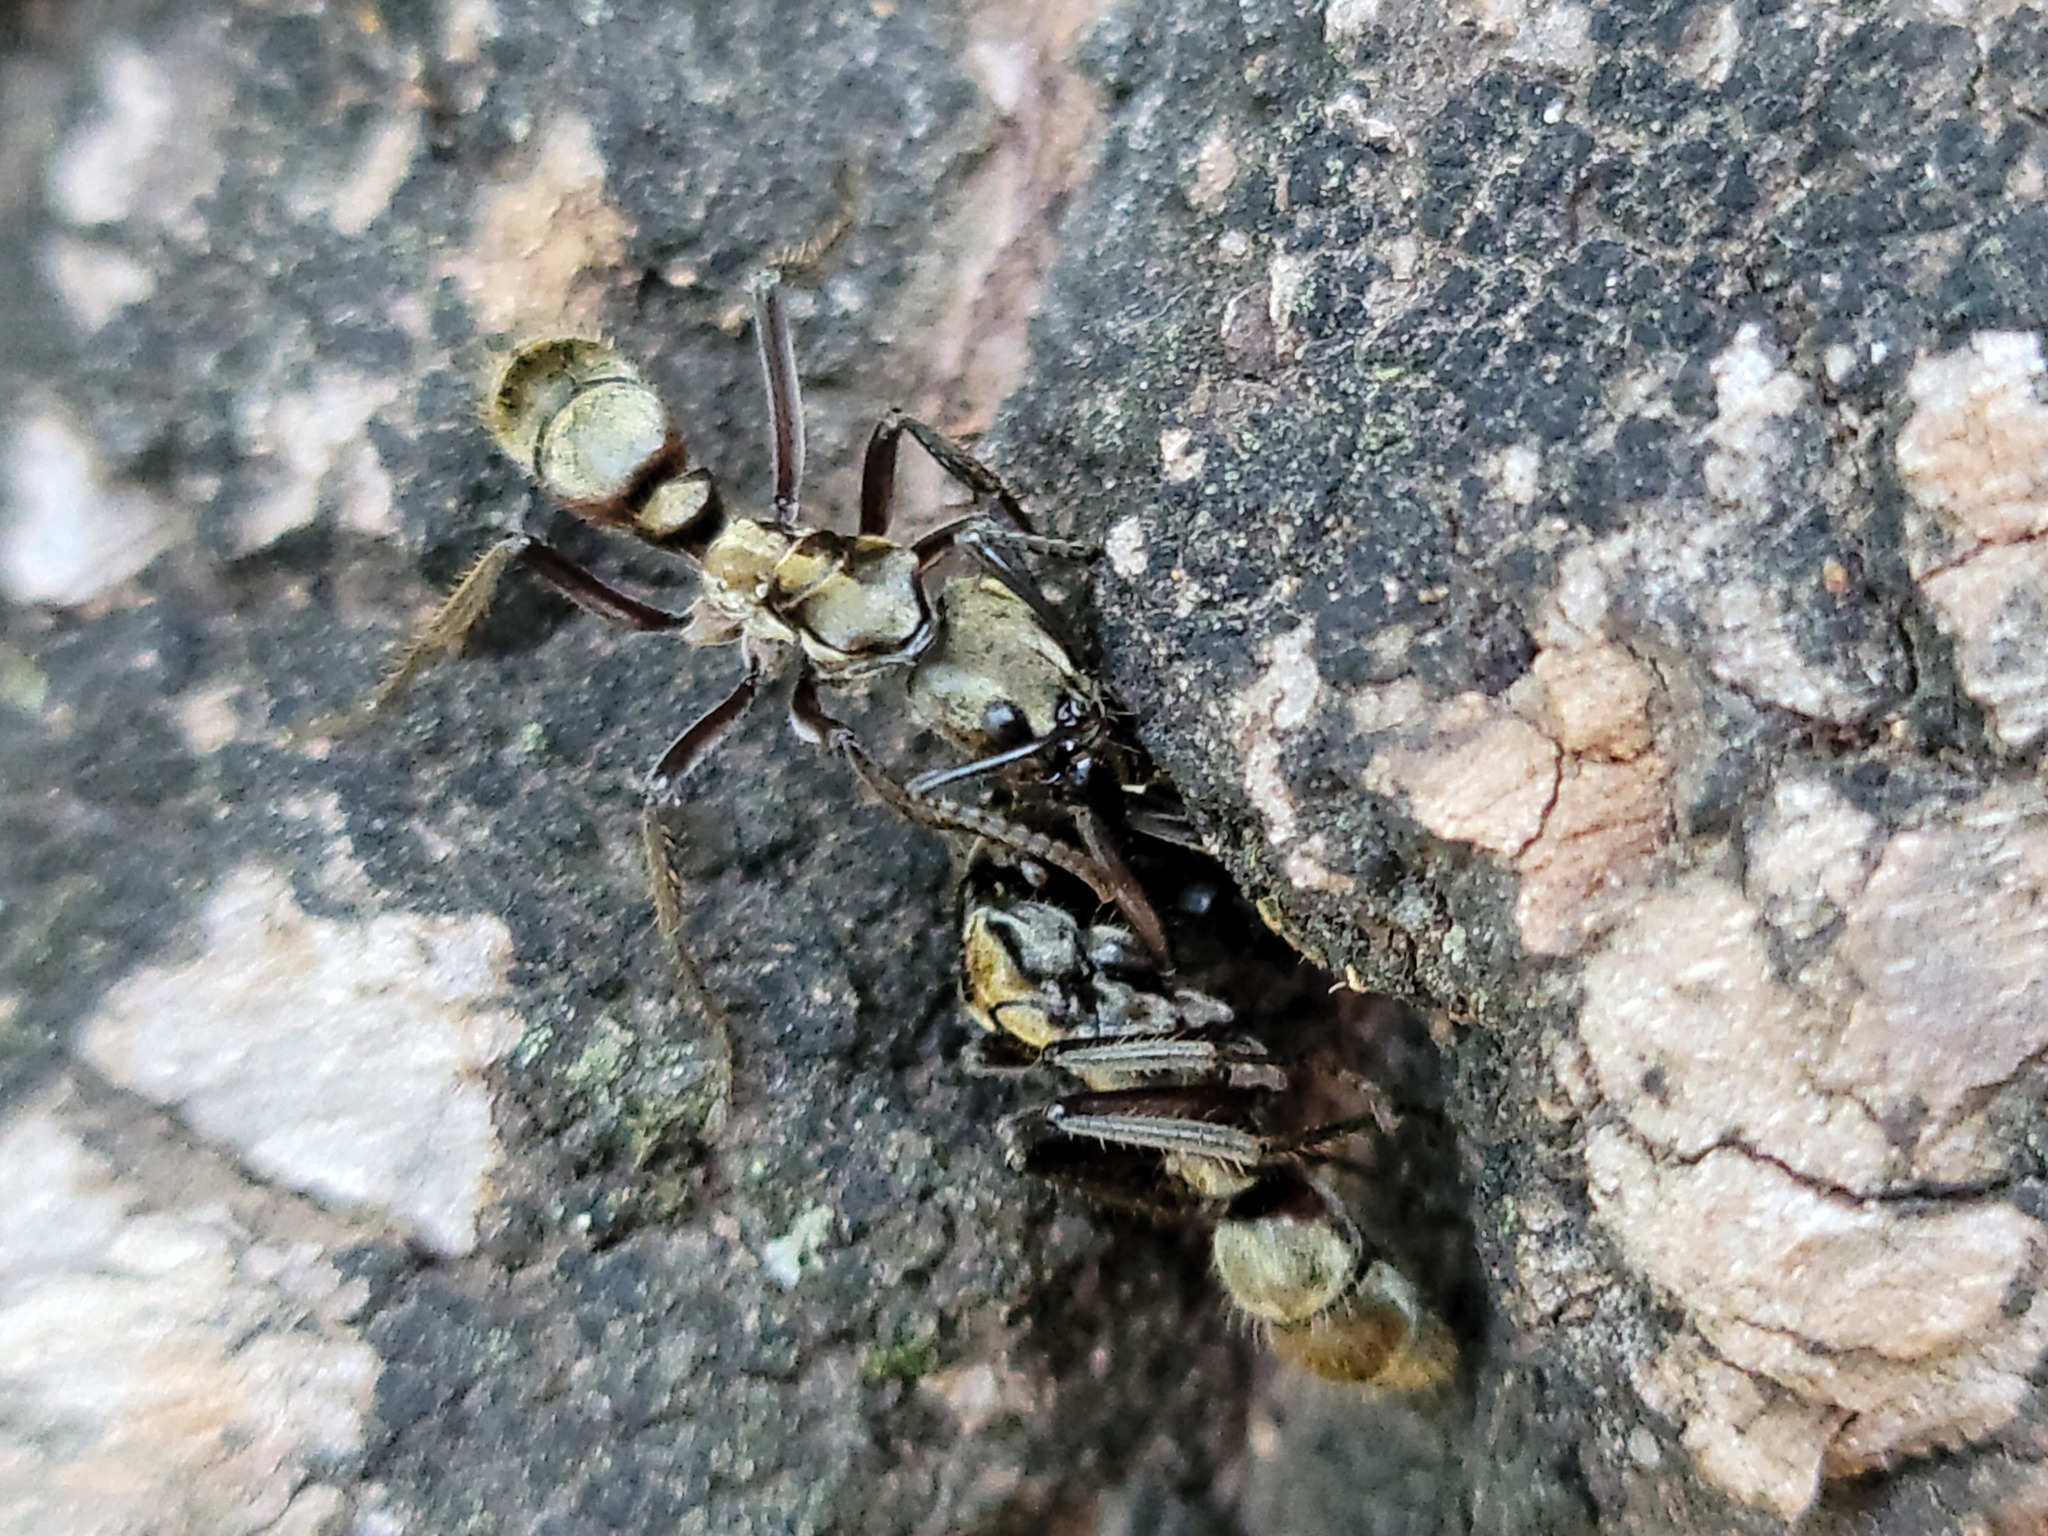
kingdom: Animalia
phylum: Arthropoda
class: Insecta
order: Hymenoptera
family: Formicidae
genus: Pachycondyla
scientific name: Pachycondyla villosa
